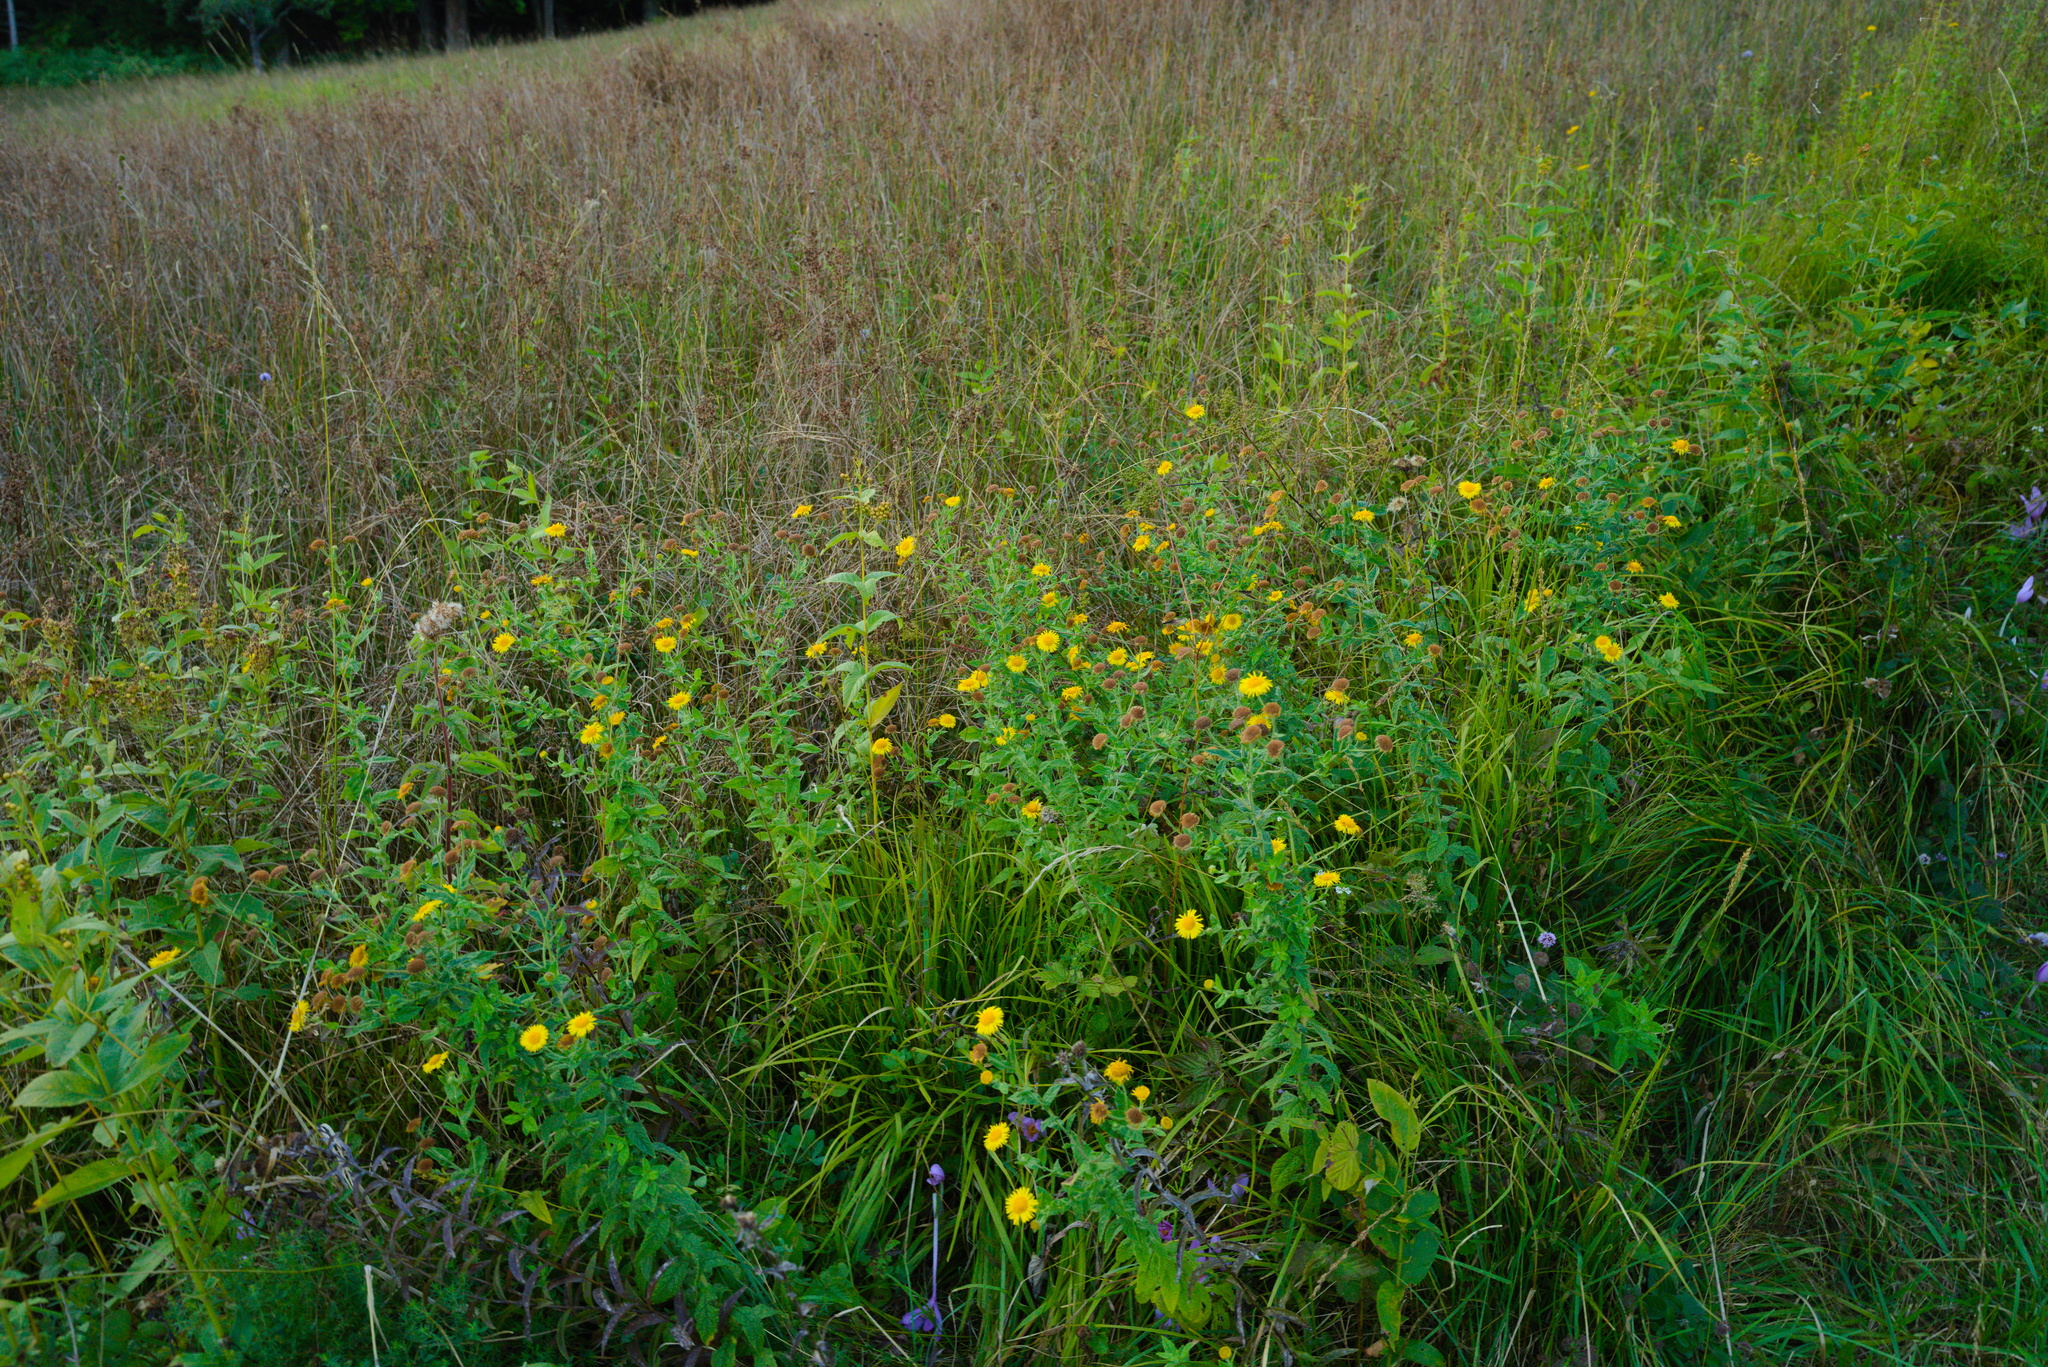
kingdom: Plantae
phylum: Tracheophyta
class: Magnoliopsida
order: Asterales
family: Asteraceae
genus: Pulicaria
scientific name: Pulicaria dysenterica
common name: Common fleabane
